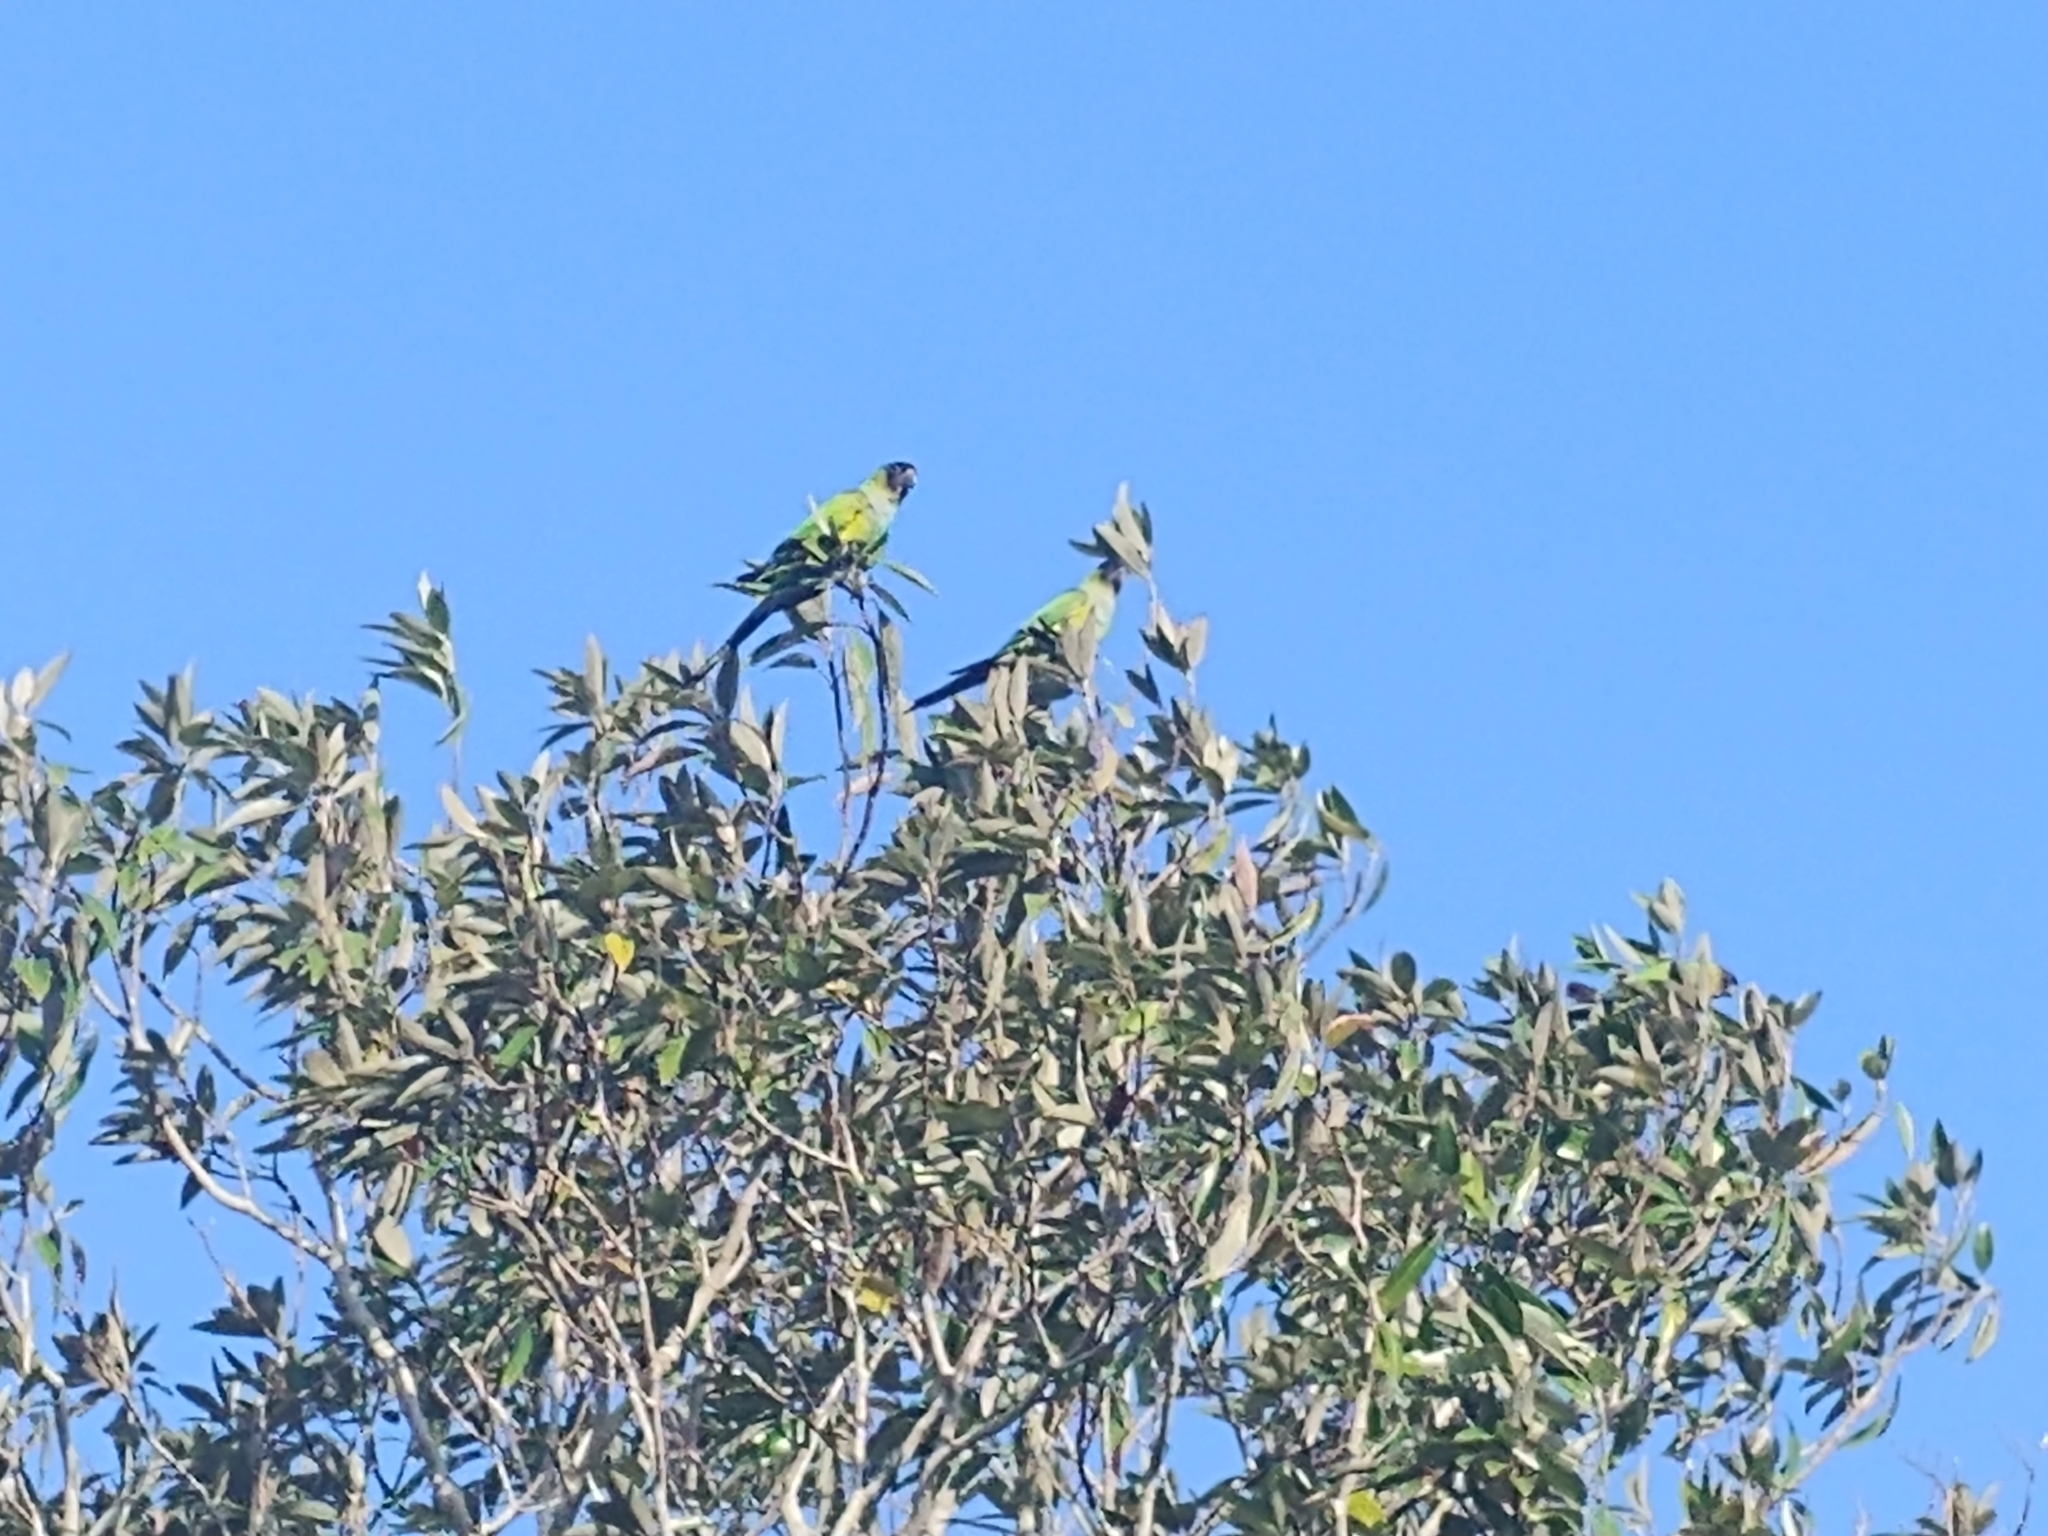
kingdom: Animalia
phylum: Chordata
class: Aves
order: Psittaciformes
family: Psittacidae
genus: Nandayus
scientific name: Nandayus nenday
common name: Nanday parakeet
